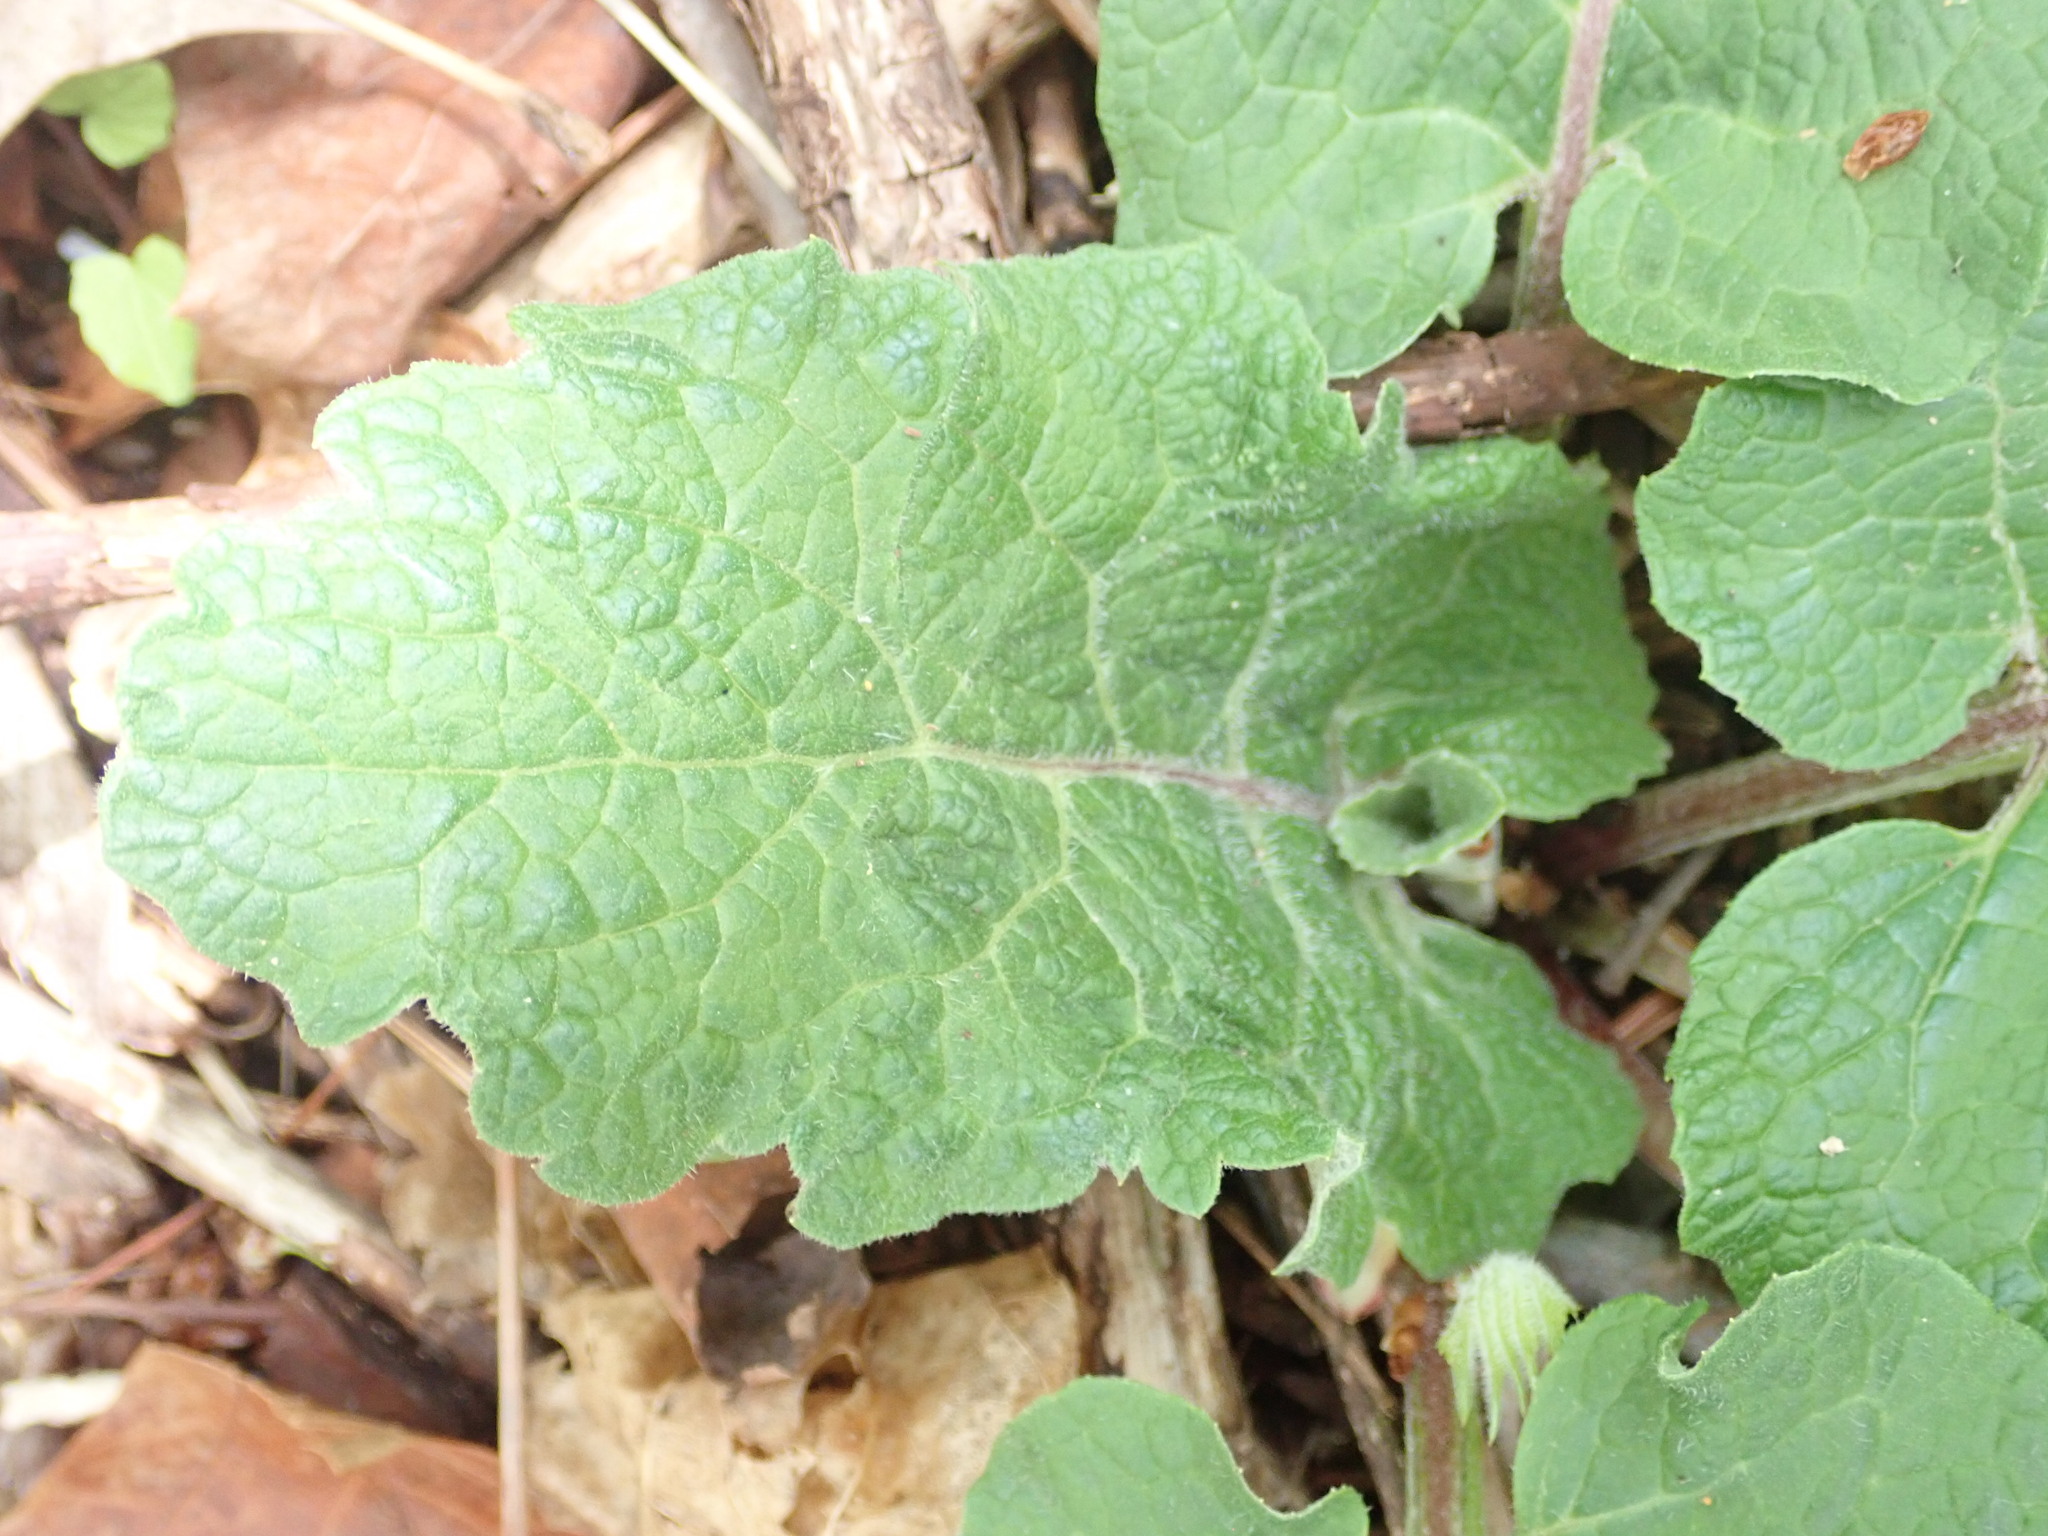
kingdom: Plantae
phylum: Tracheophyta
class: Magnoliopsida
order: Asterales
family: Asteraceae
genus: Arctium
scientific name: Arctium
